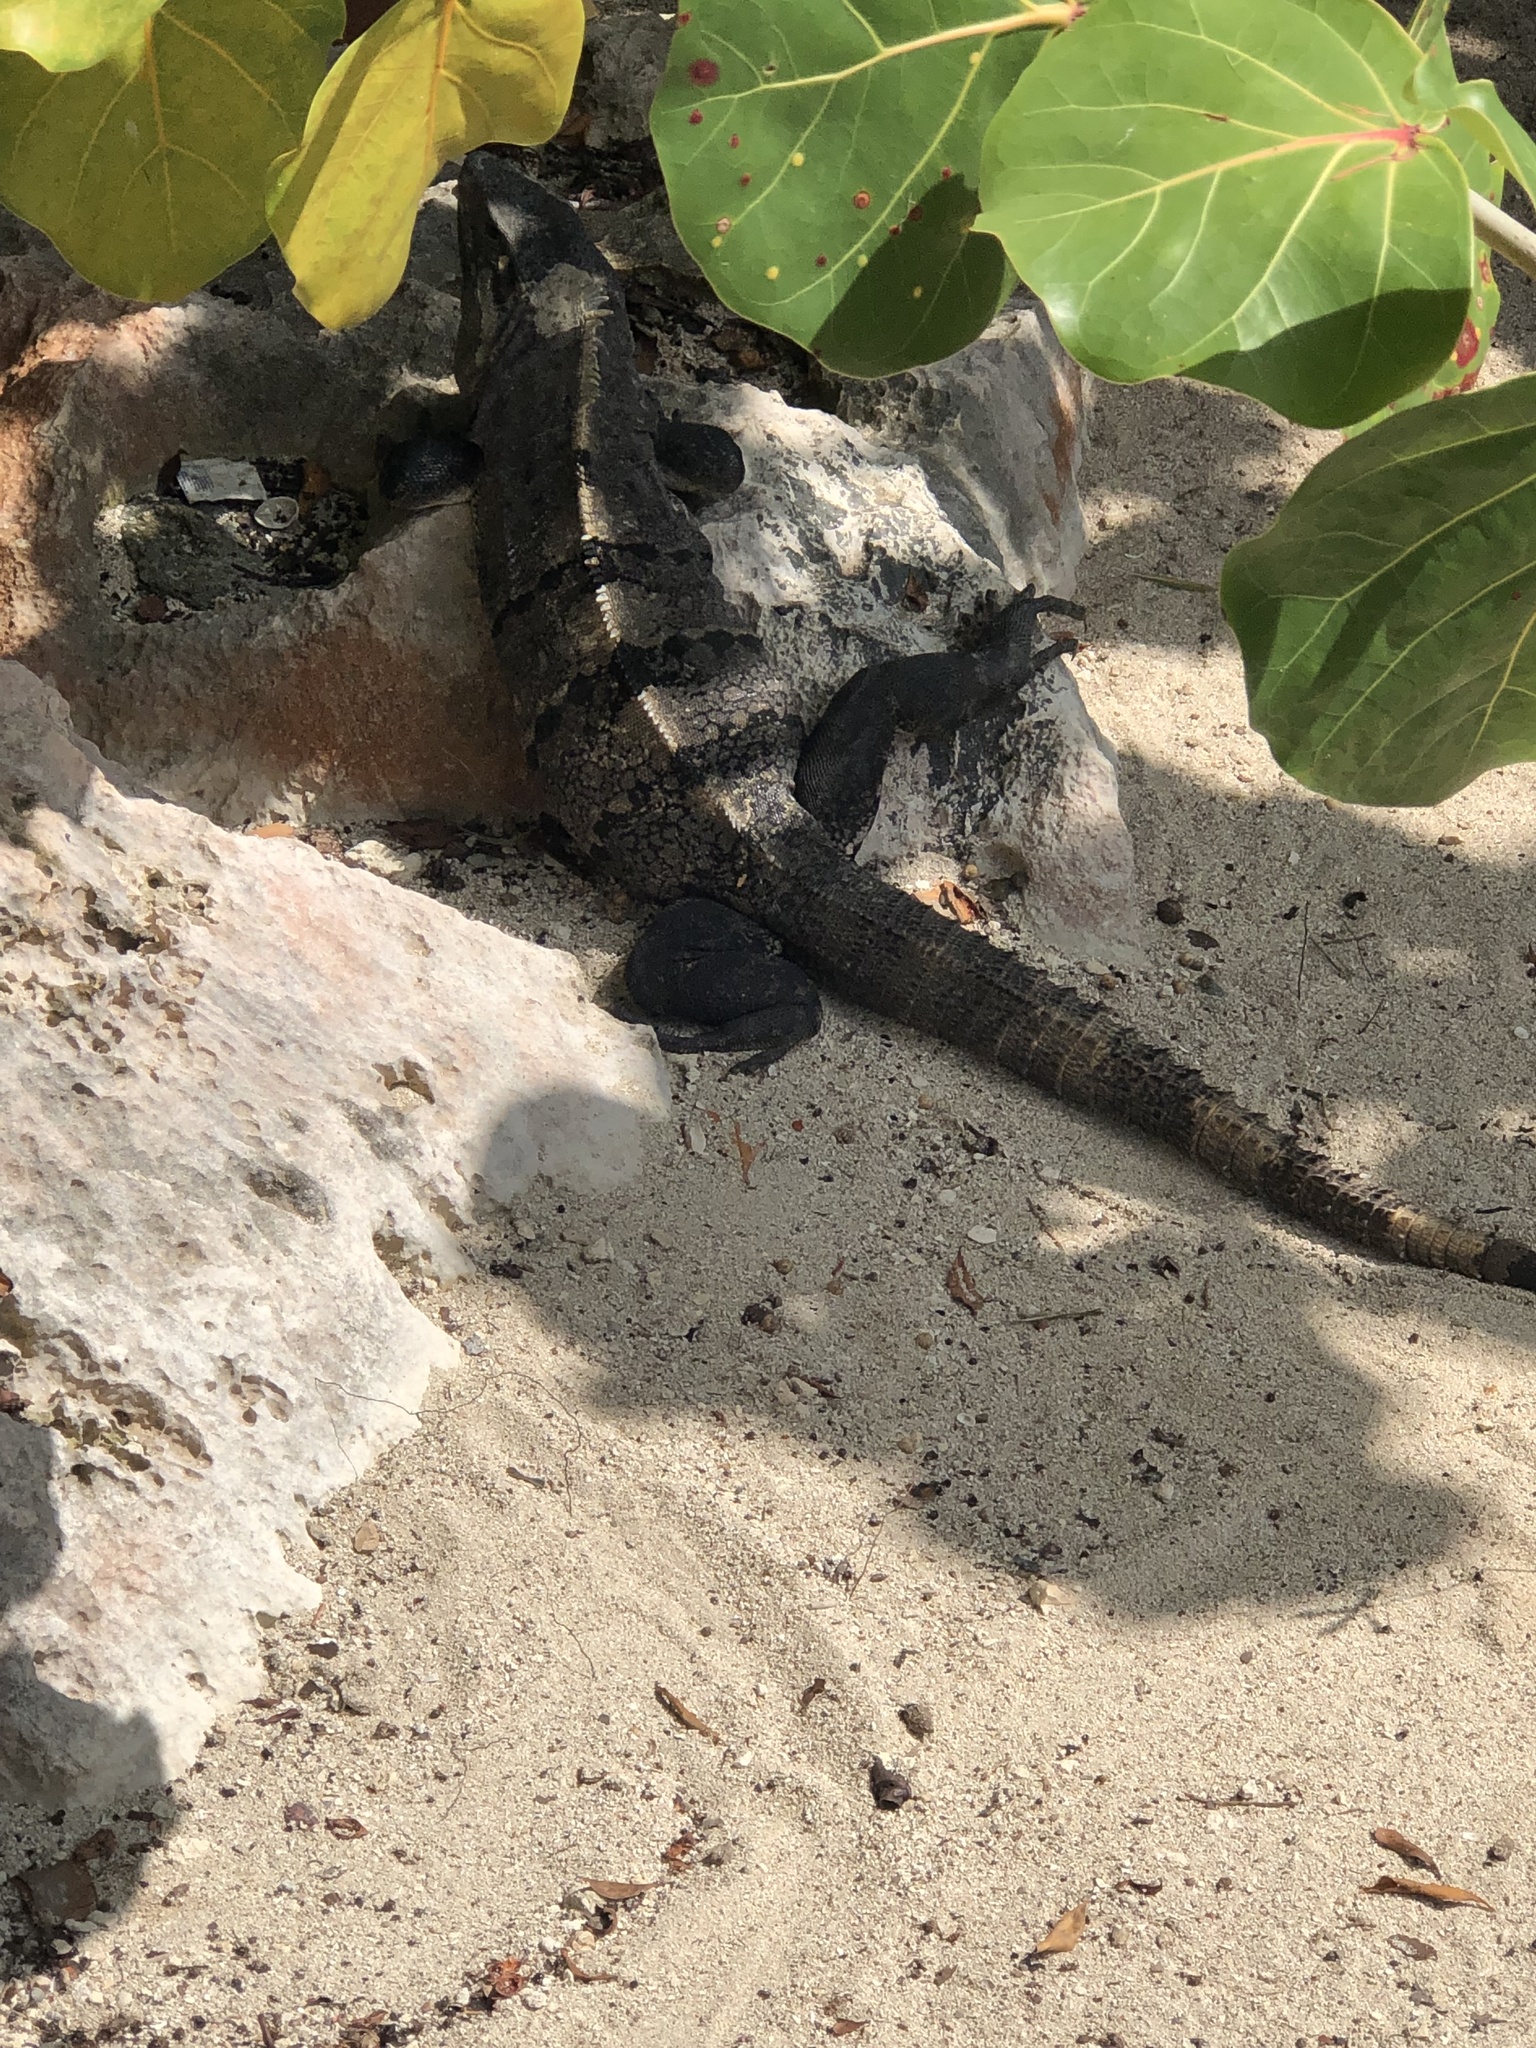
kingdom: Animalia
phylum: Chordata
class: Squamata
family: Iguanidae
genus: Ctenosaura
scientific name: Ctenosaura similis
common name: Black spiny-tailed iguana
